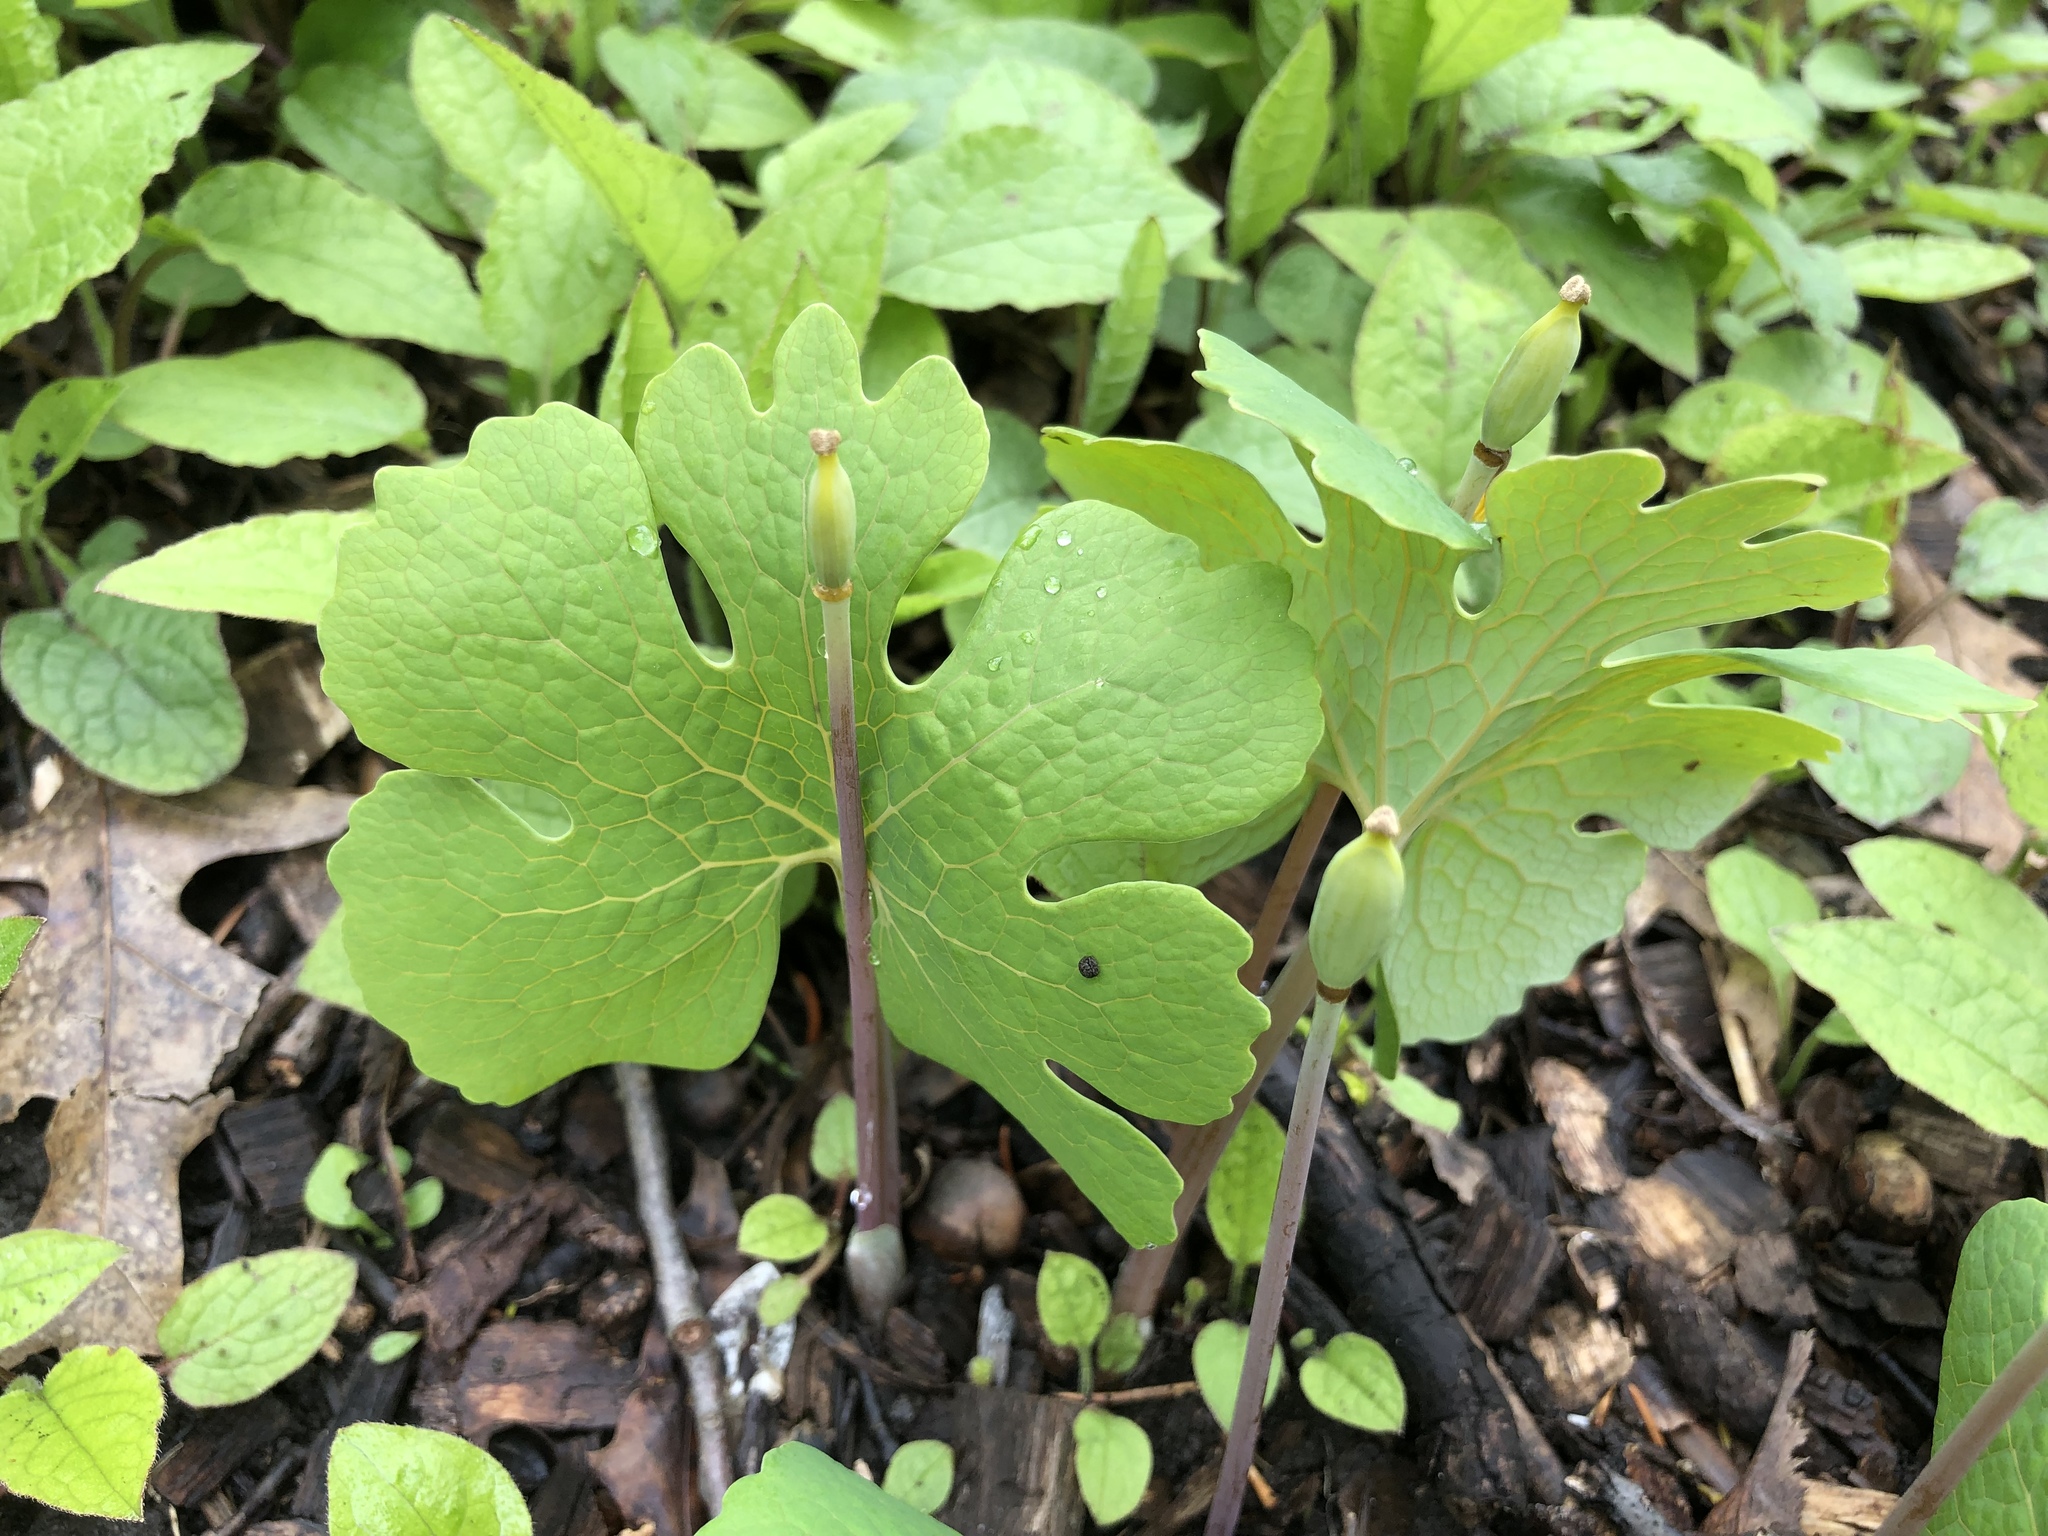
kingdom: Plantae
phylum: Tracheophyta
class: Magnoliopsida
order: Ranunculales
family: Papaveraceae
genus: Sanguinaria
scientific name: Sanguinaria canadensis
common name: Bloodroot
